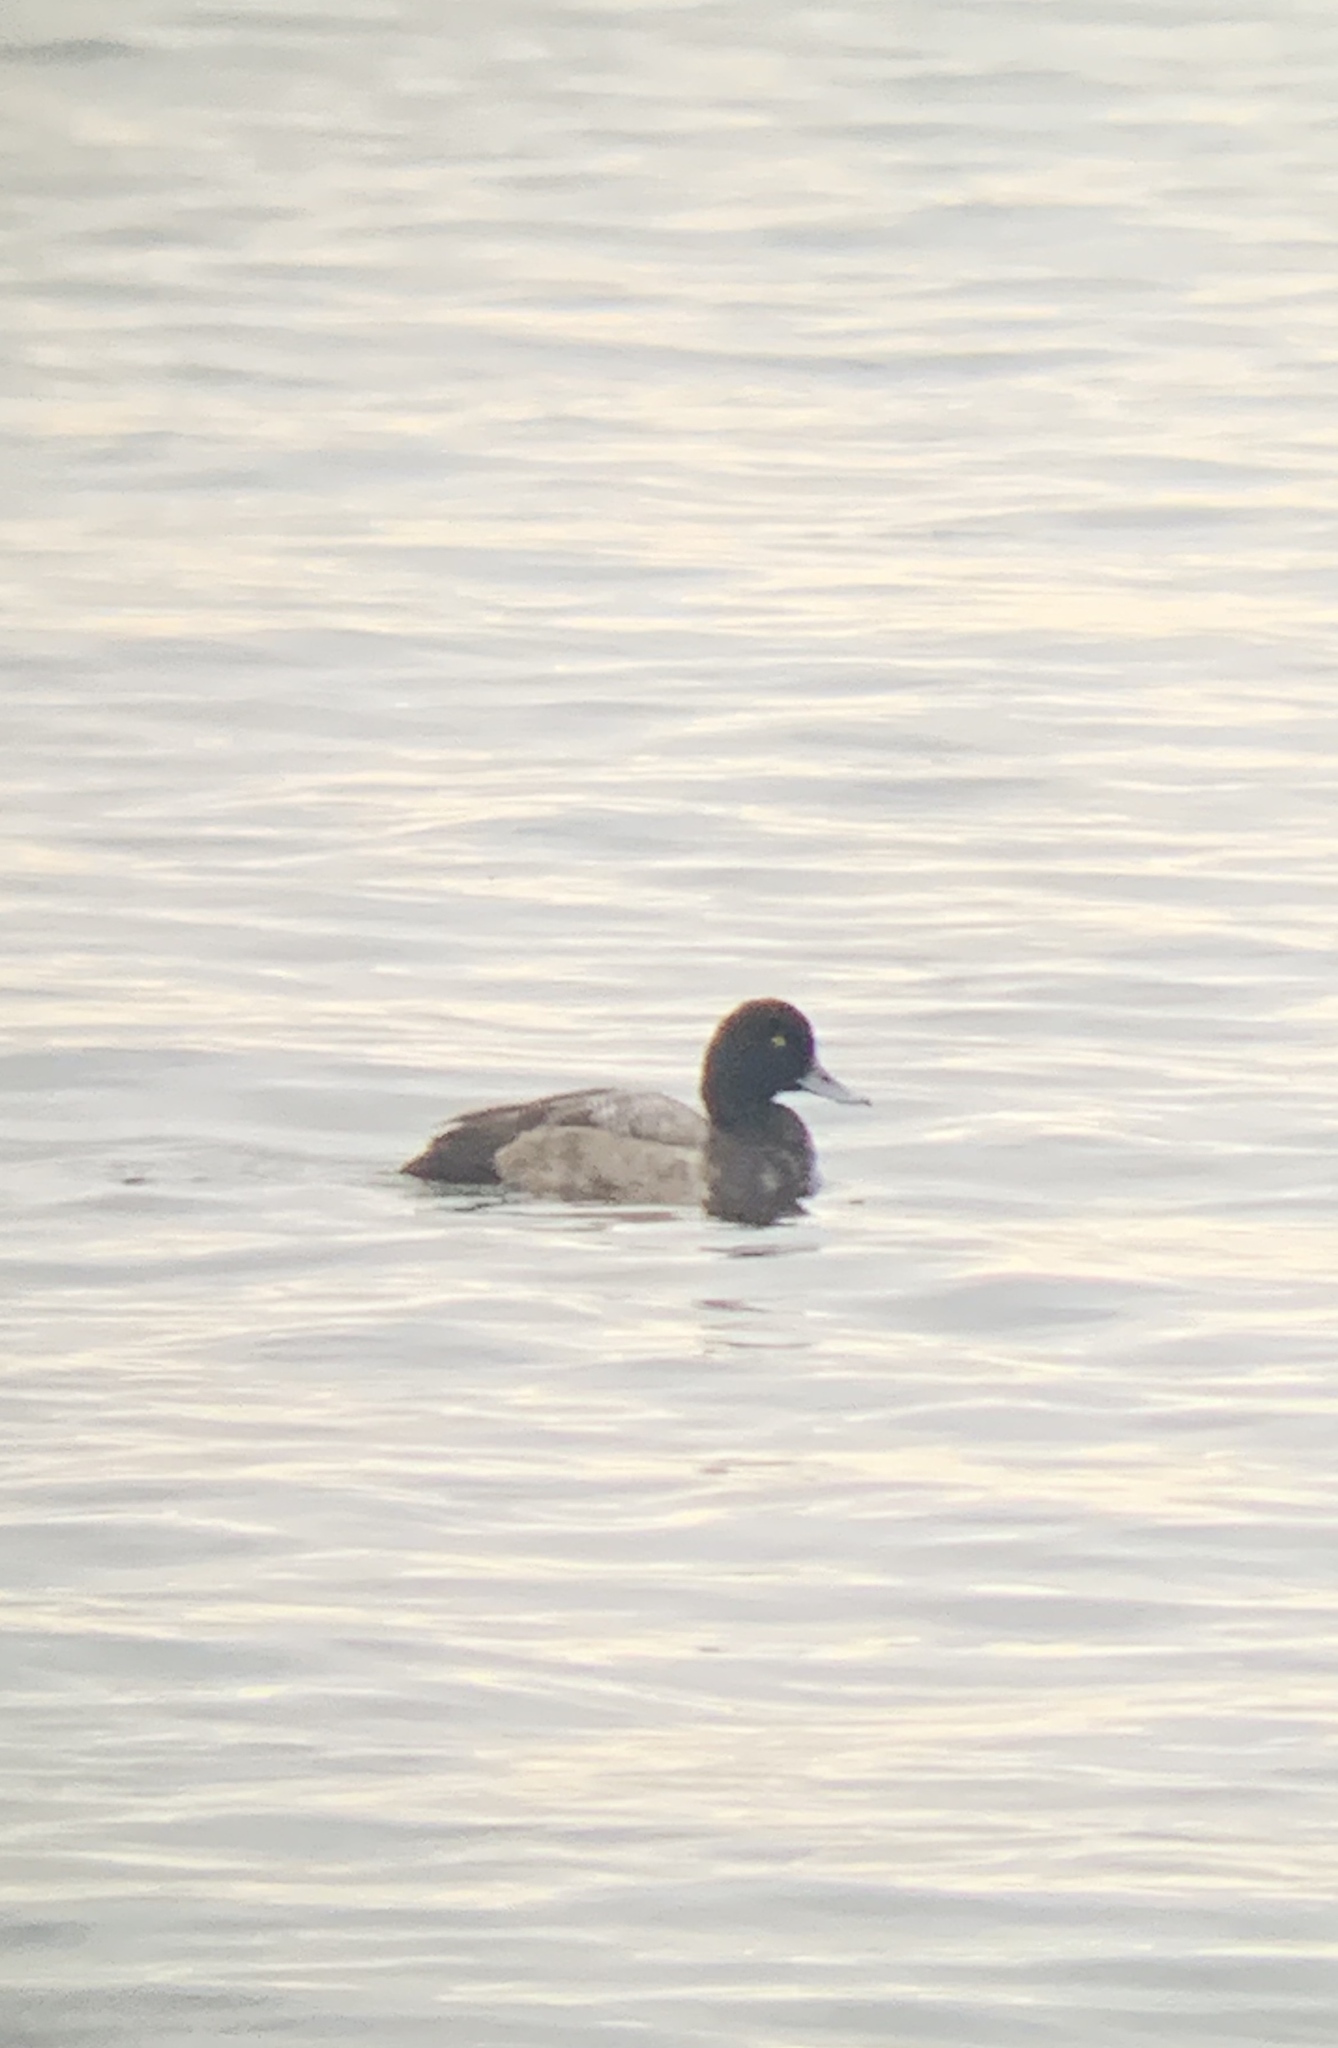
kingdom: Animalia
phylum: Chordata
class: Aves
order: Anseriformes
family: Anatidae
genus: Aythya
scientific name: Aythya affinis
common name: Lesser scaup
